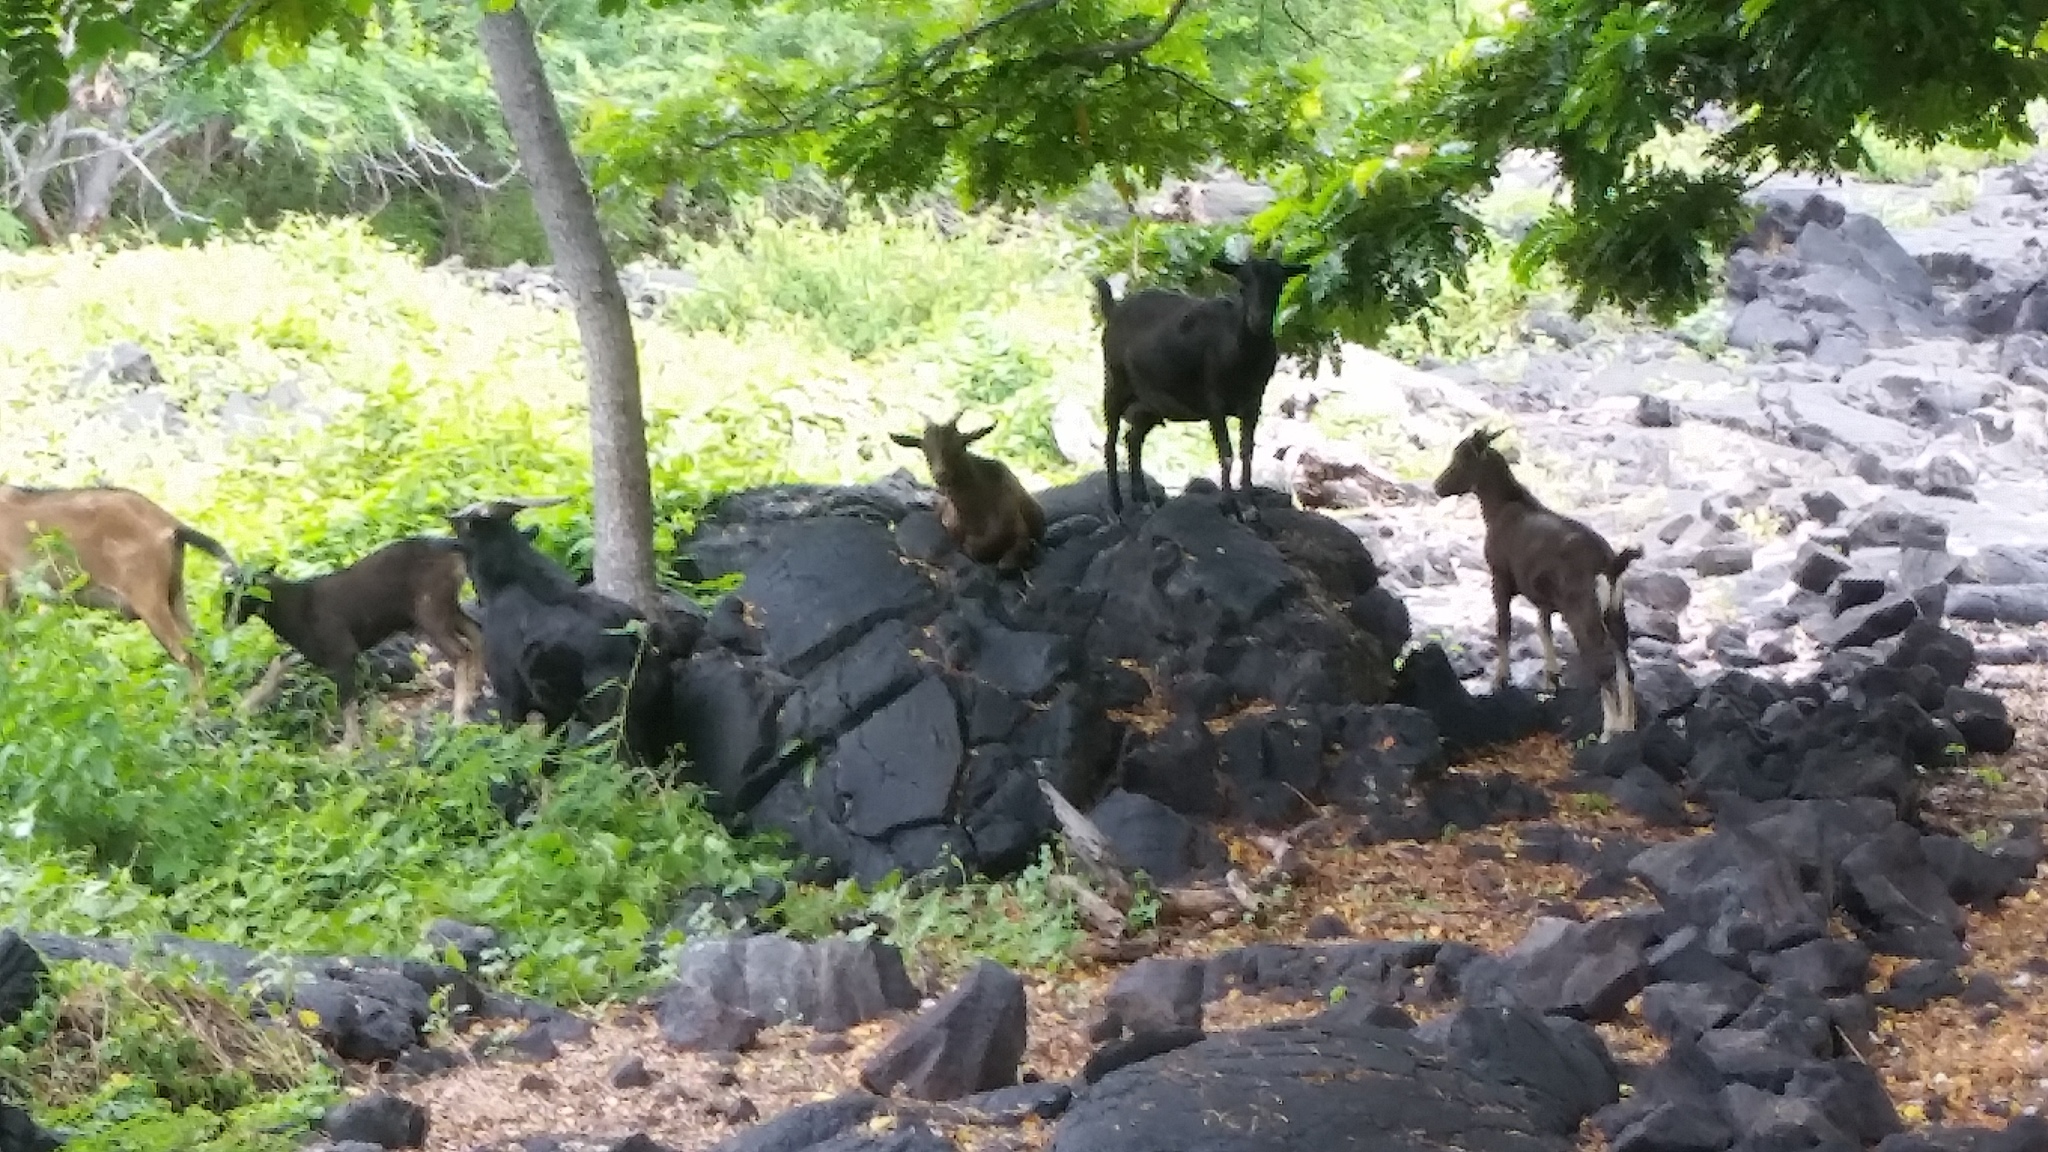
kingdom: Animalia
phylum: Chordata
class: Mammalia
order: Artiodactyla
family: Bovidae
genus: Capra
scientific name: Capra hircus
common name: Domestic goat
